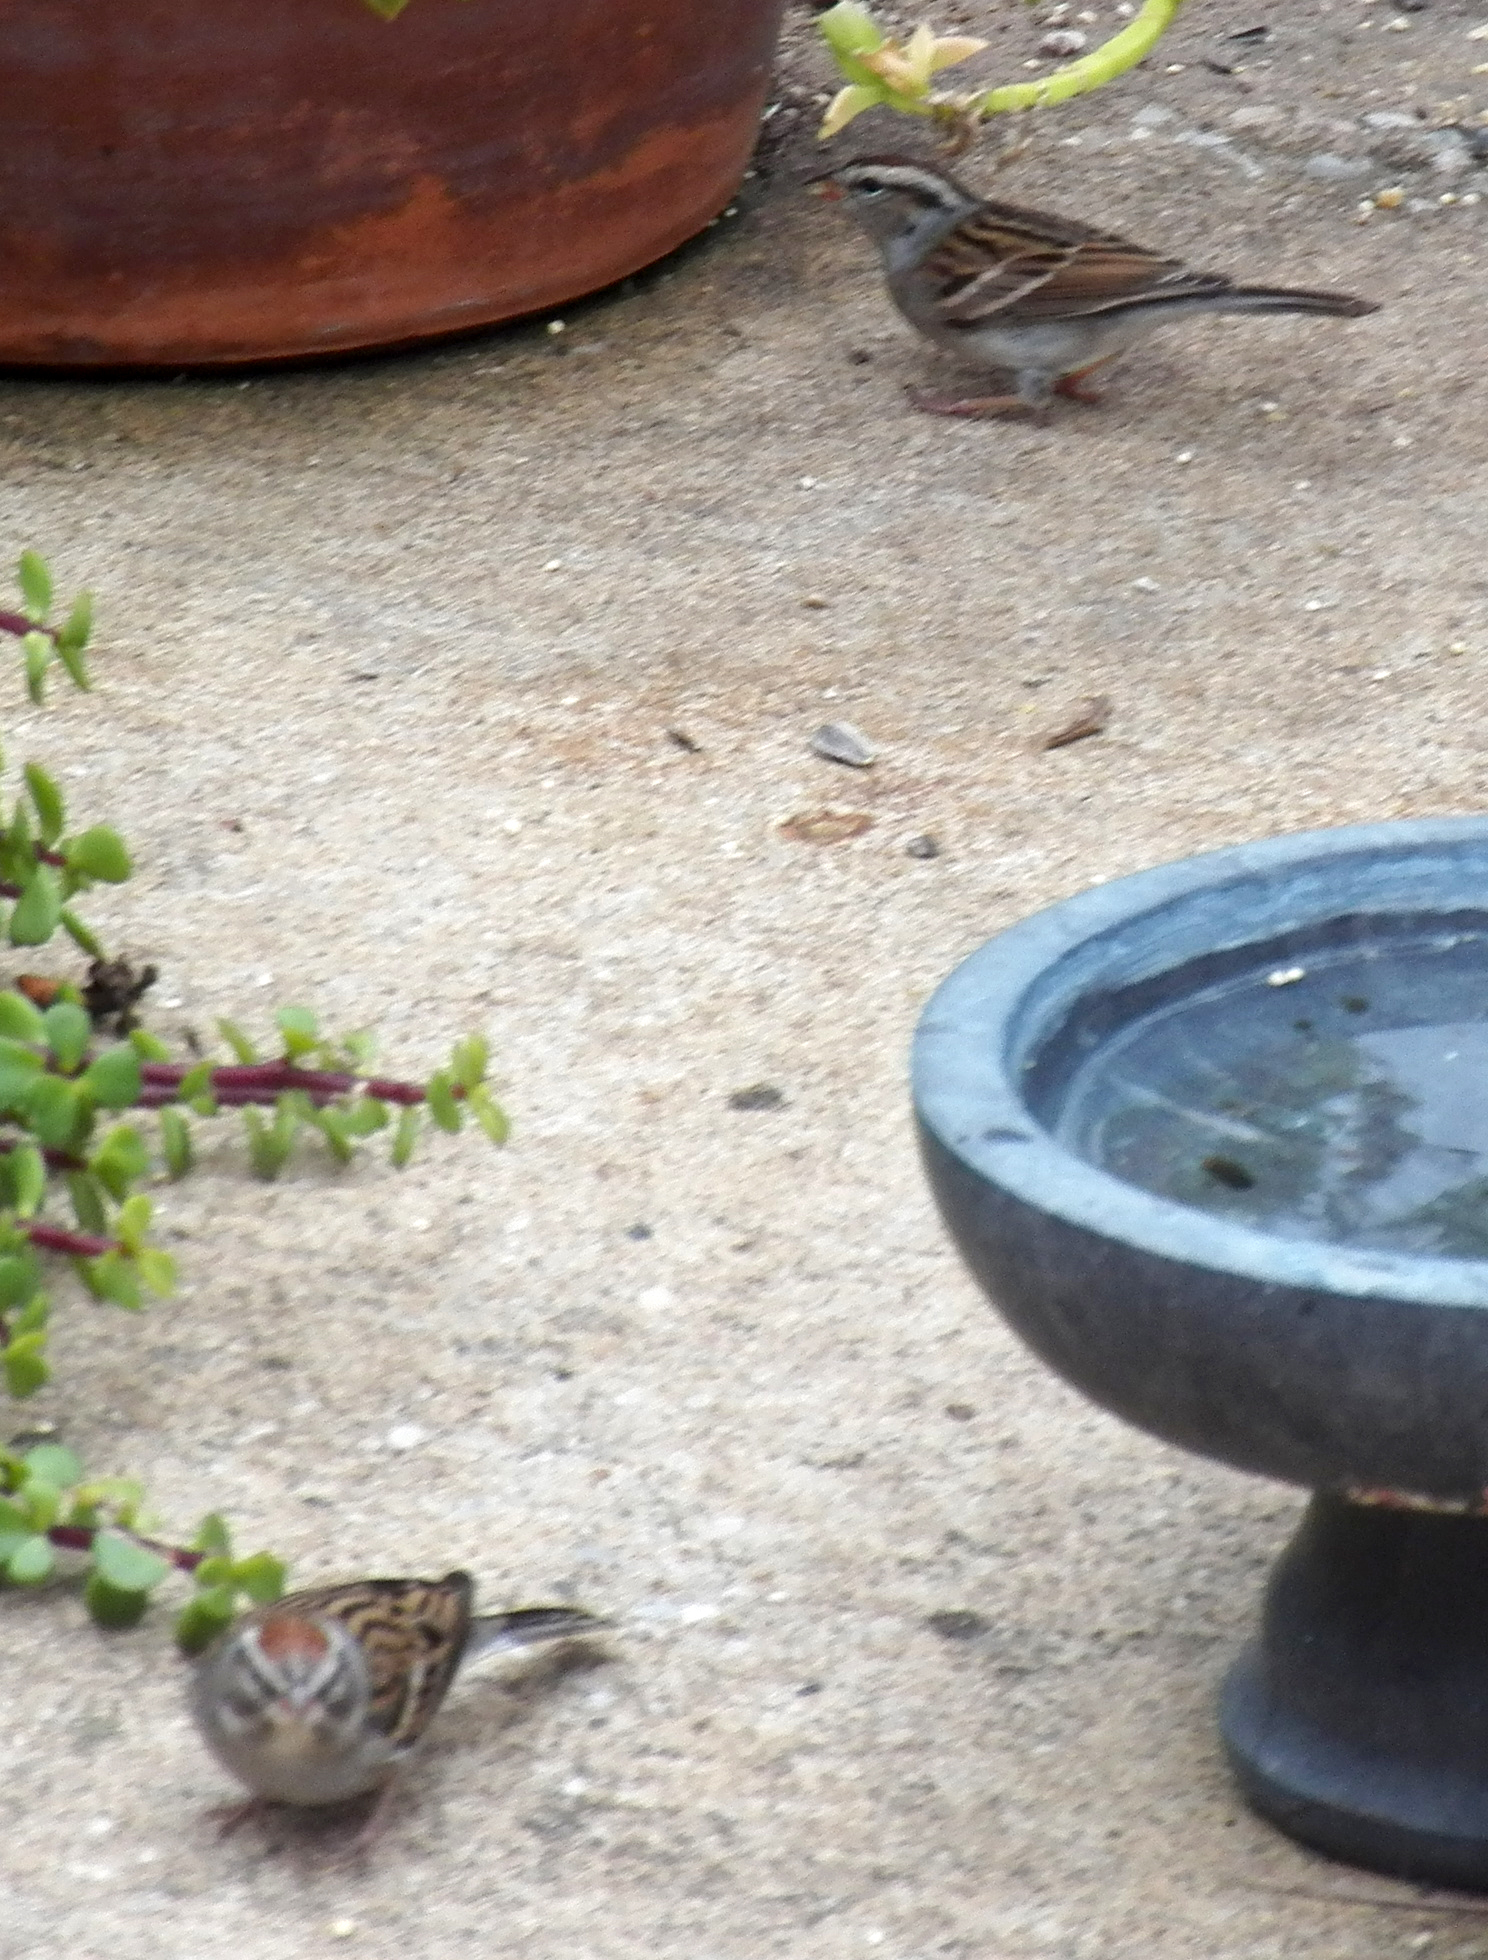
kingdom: Animalia
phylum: Chordata
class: Aves
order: Passeriformes
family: Passerellidae
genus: Spizella
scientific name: Spizella passerina
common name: Chipping sparrow
